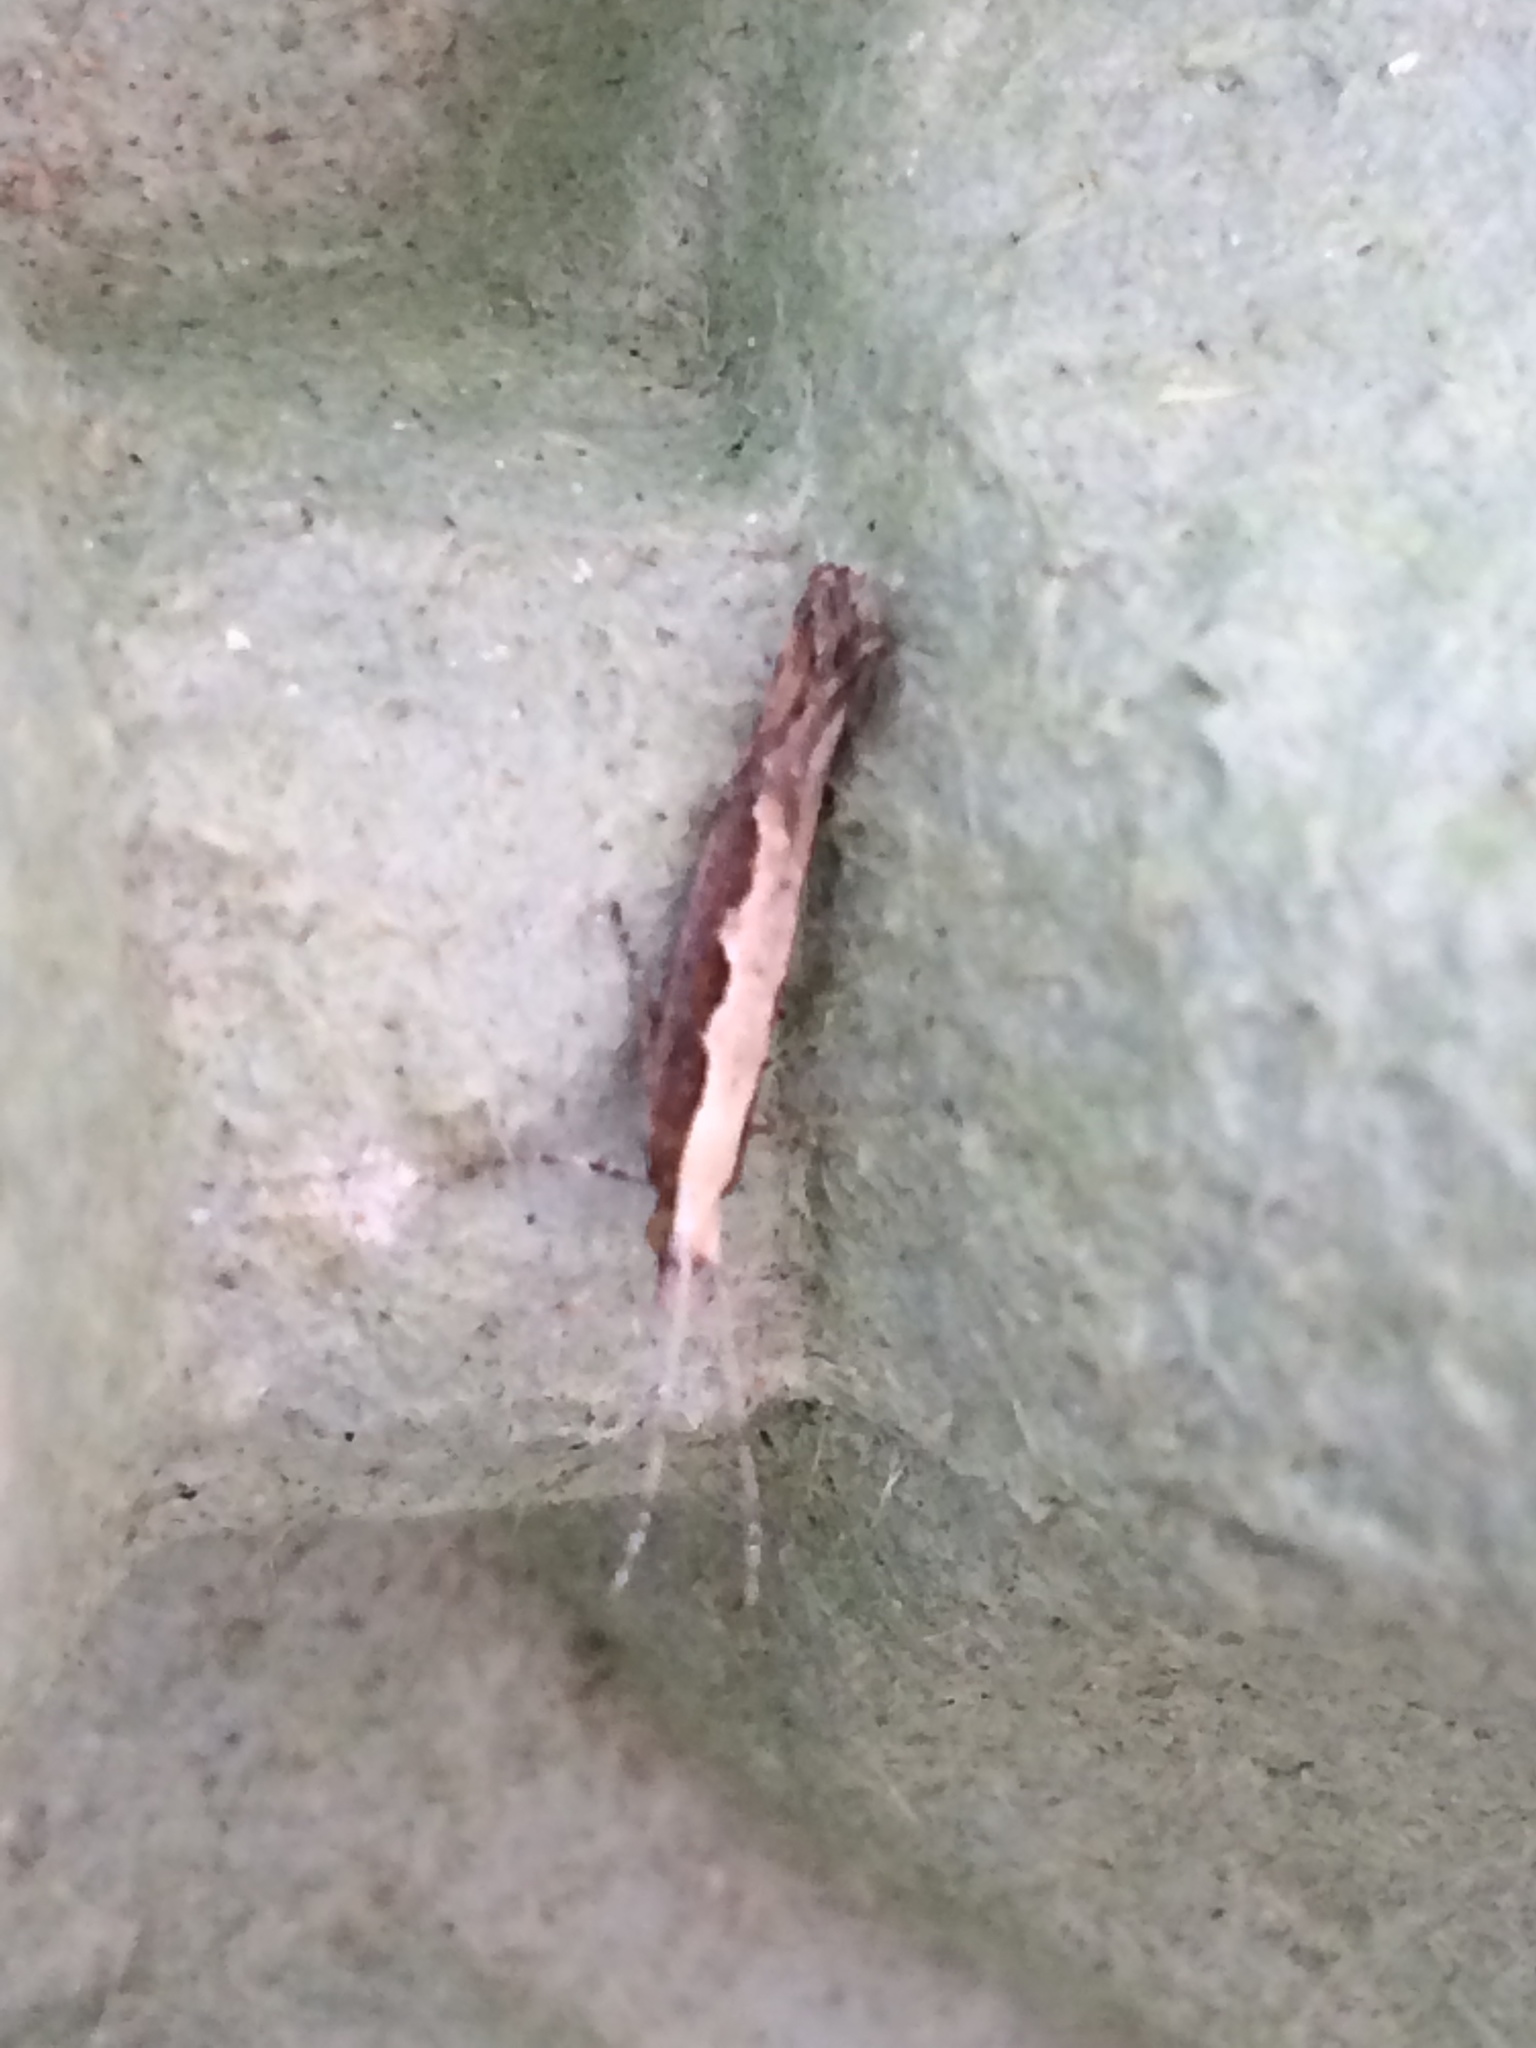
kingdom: Animalia
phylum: Arthropoda
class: Insecta
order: Lepidoptera
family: Plutellidae
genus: Plutella
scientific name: Plutella xylostella
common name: Diamond-back moth
